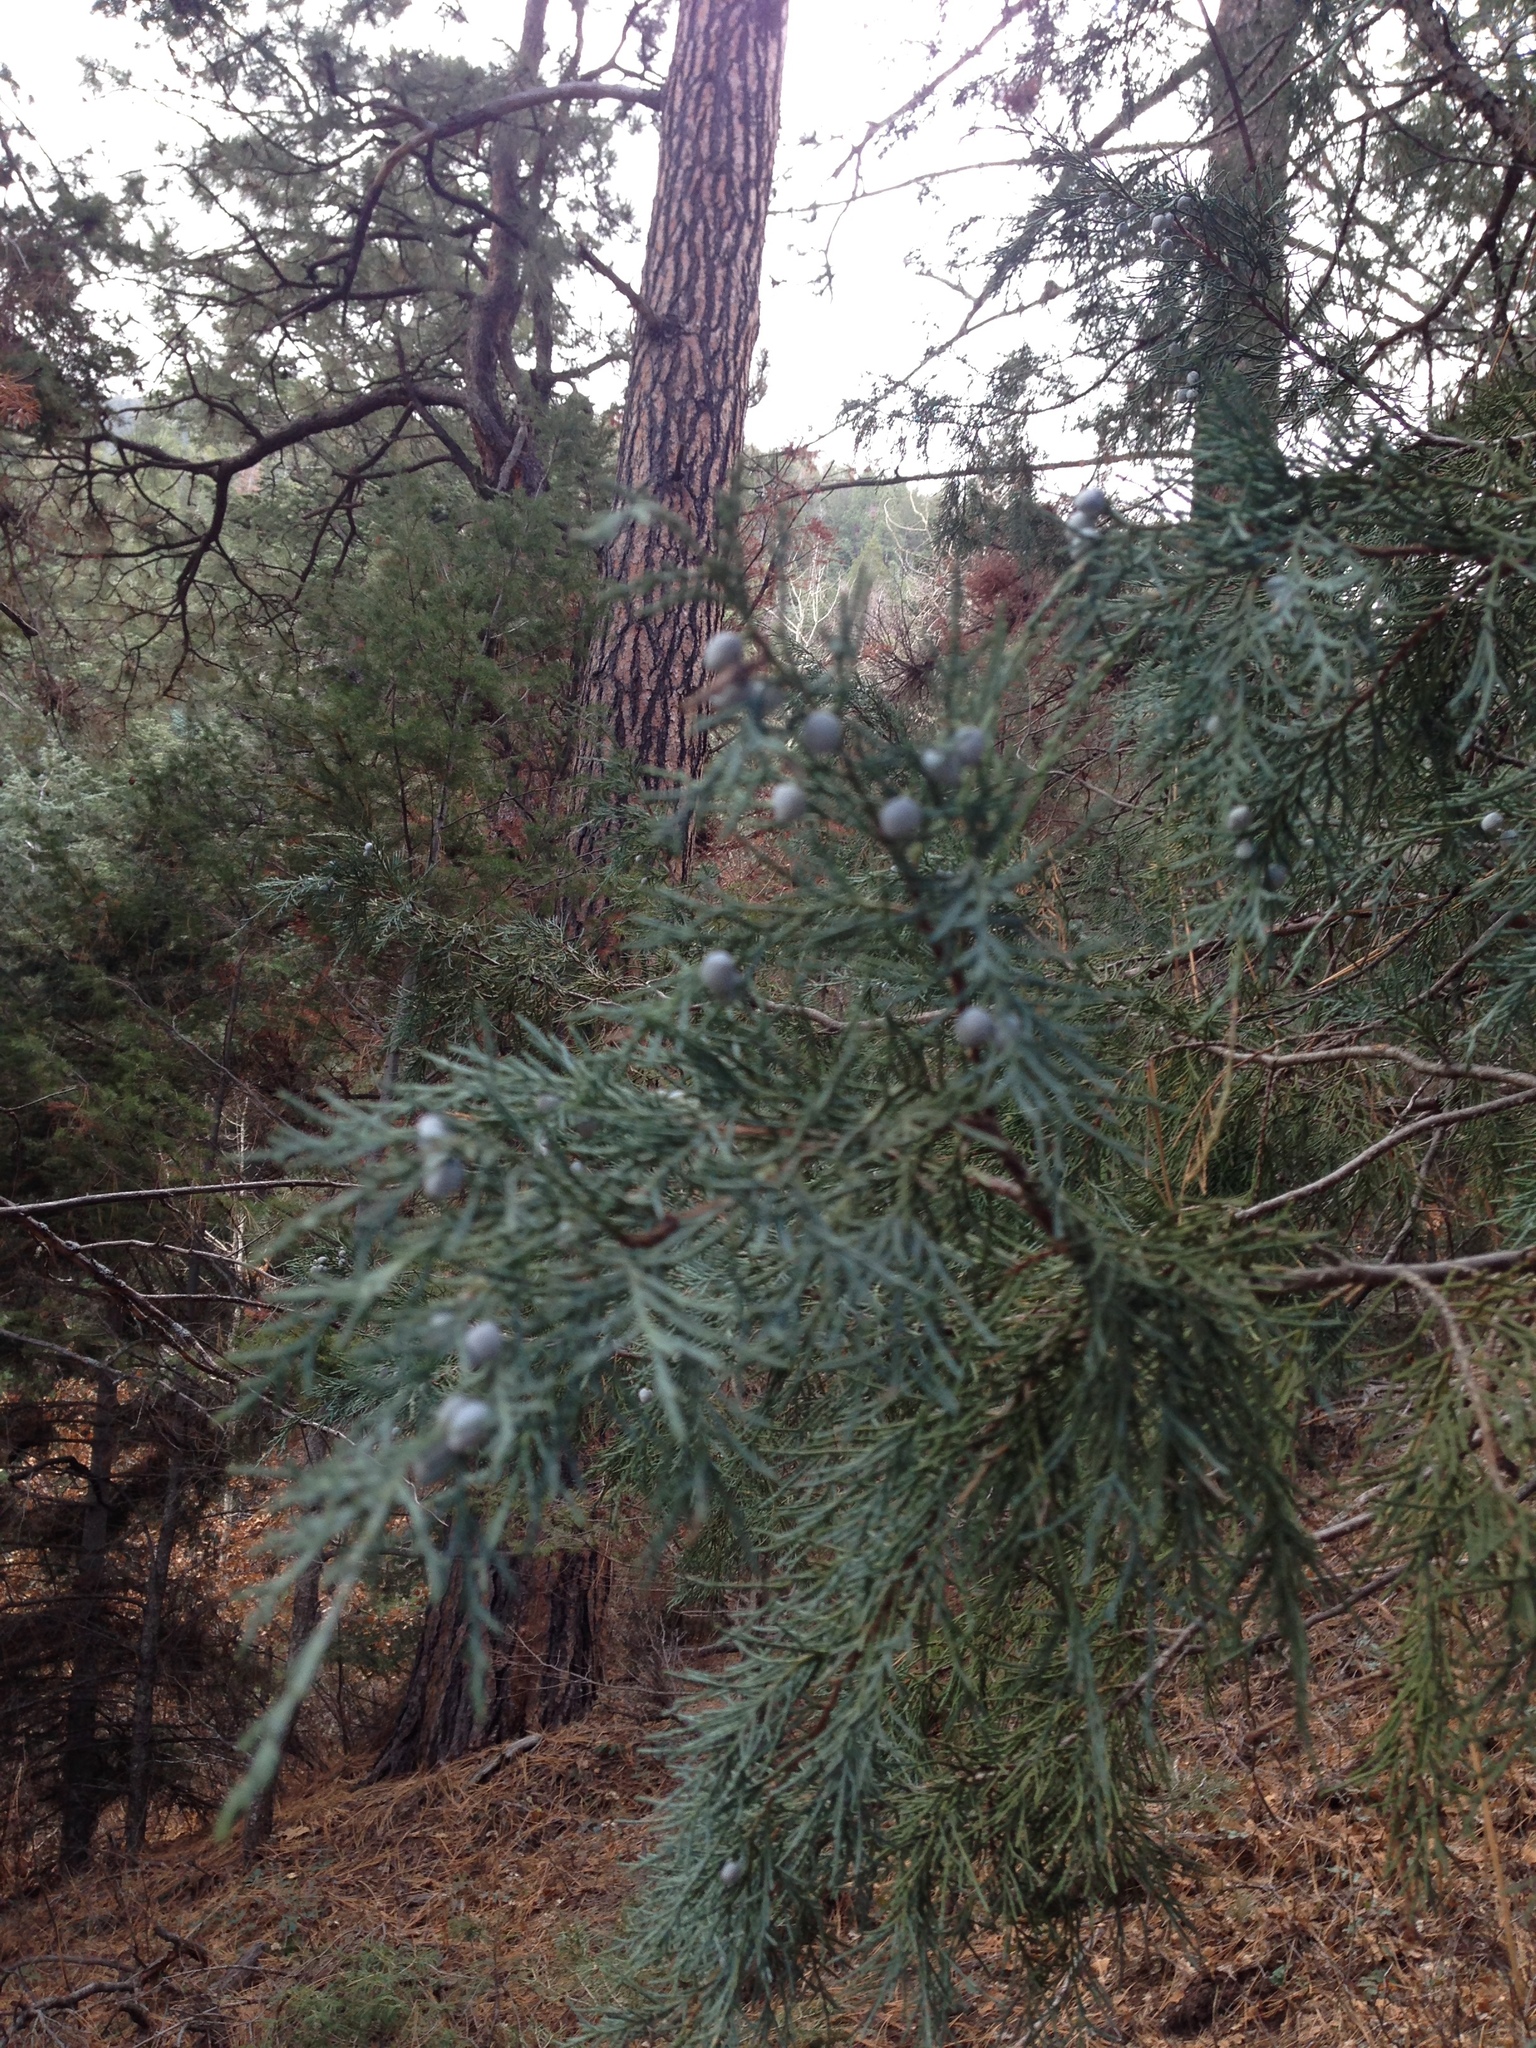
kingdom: Plantae
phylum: Tracheophyta
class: Pinopsida
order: Pinales
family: Cupressaceae
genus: Juniperus
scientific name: Juniperus scopulorum
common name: Rocky mountain juniper
